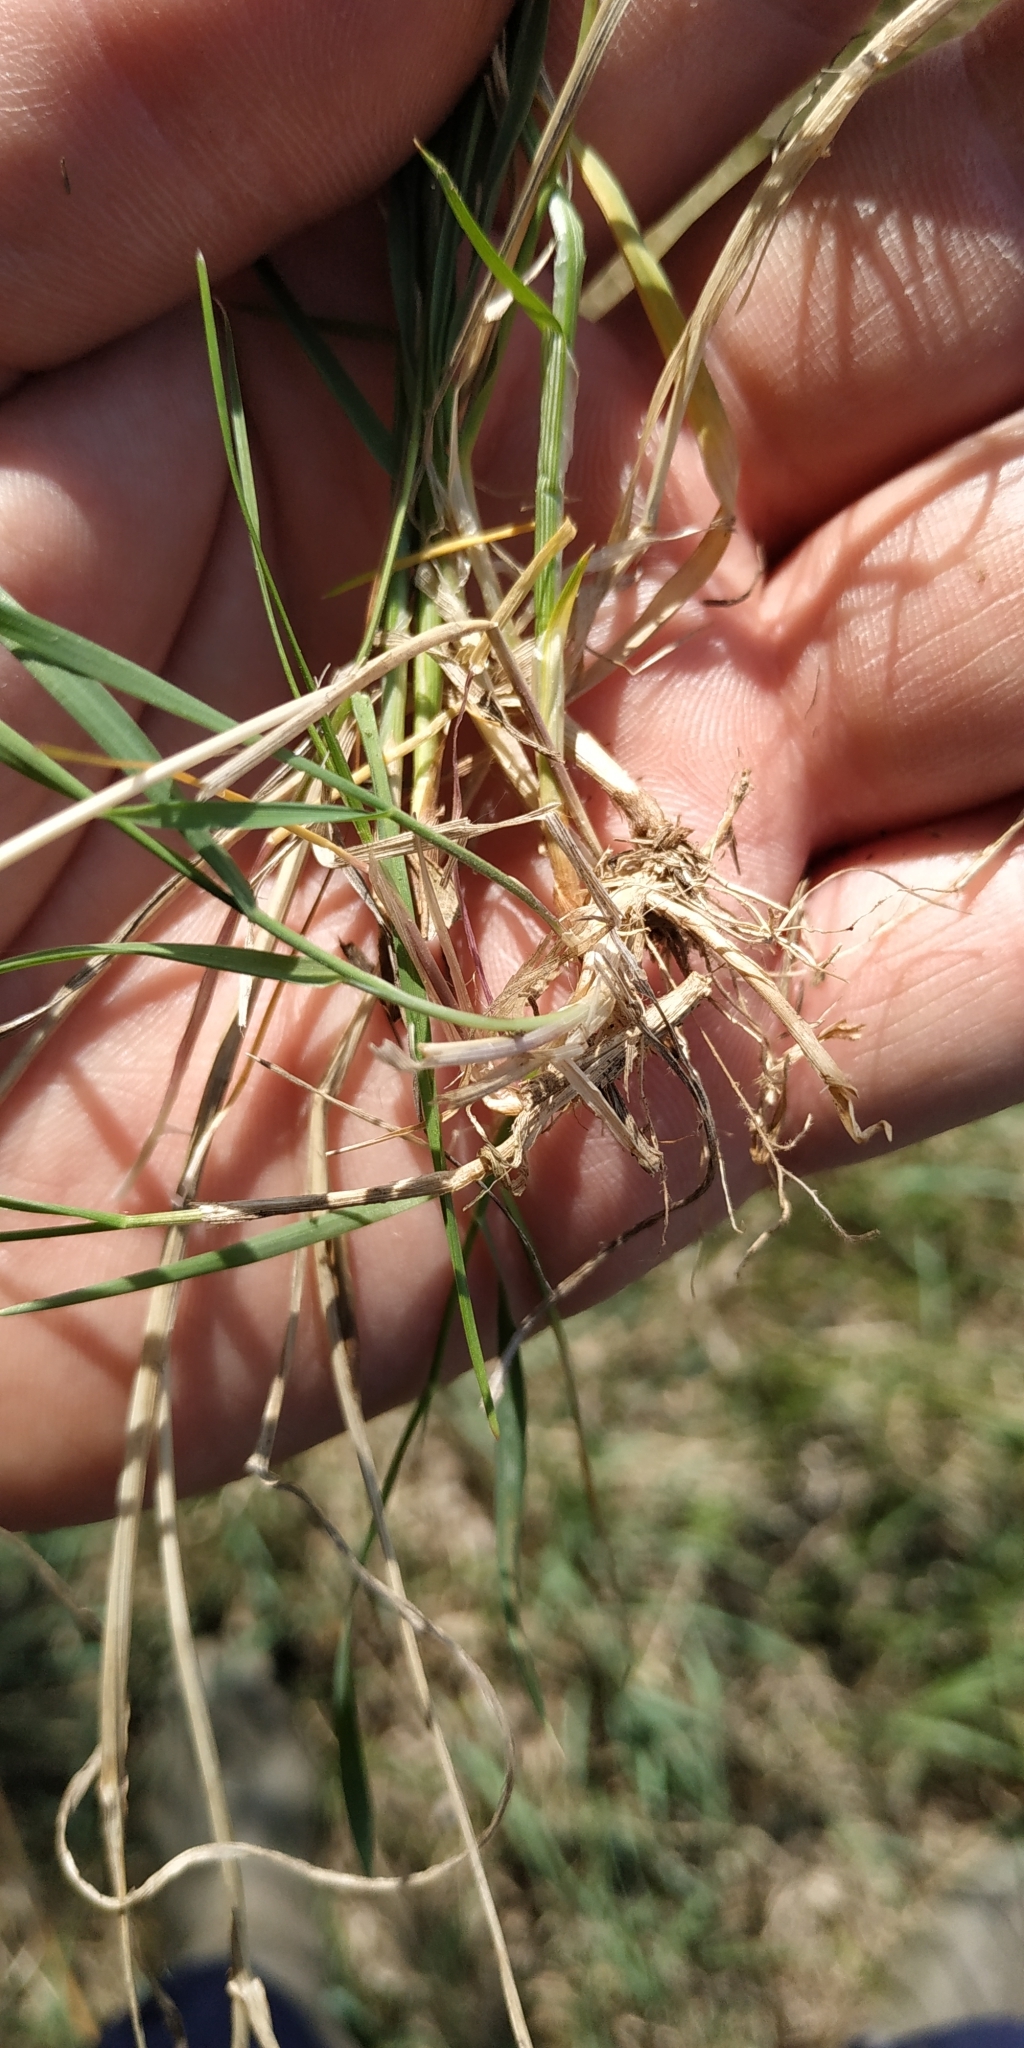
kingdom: Plantae
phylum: Tracheophyta
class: Liliopsida
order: Poales
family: Cyperaceae
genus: Carex
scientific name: Carex praecox
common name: Early sedge
